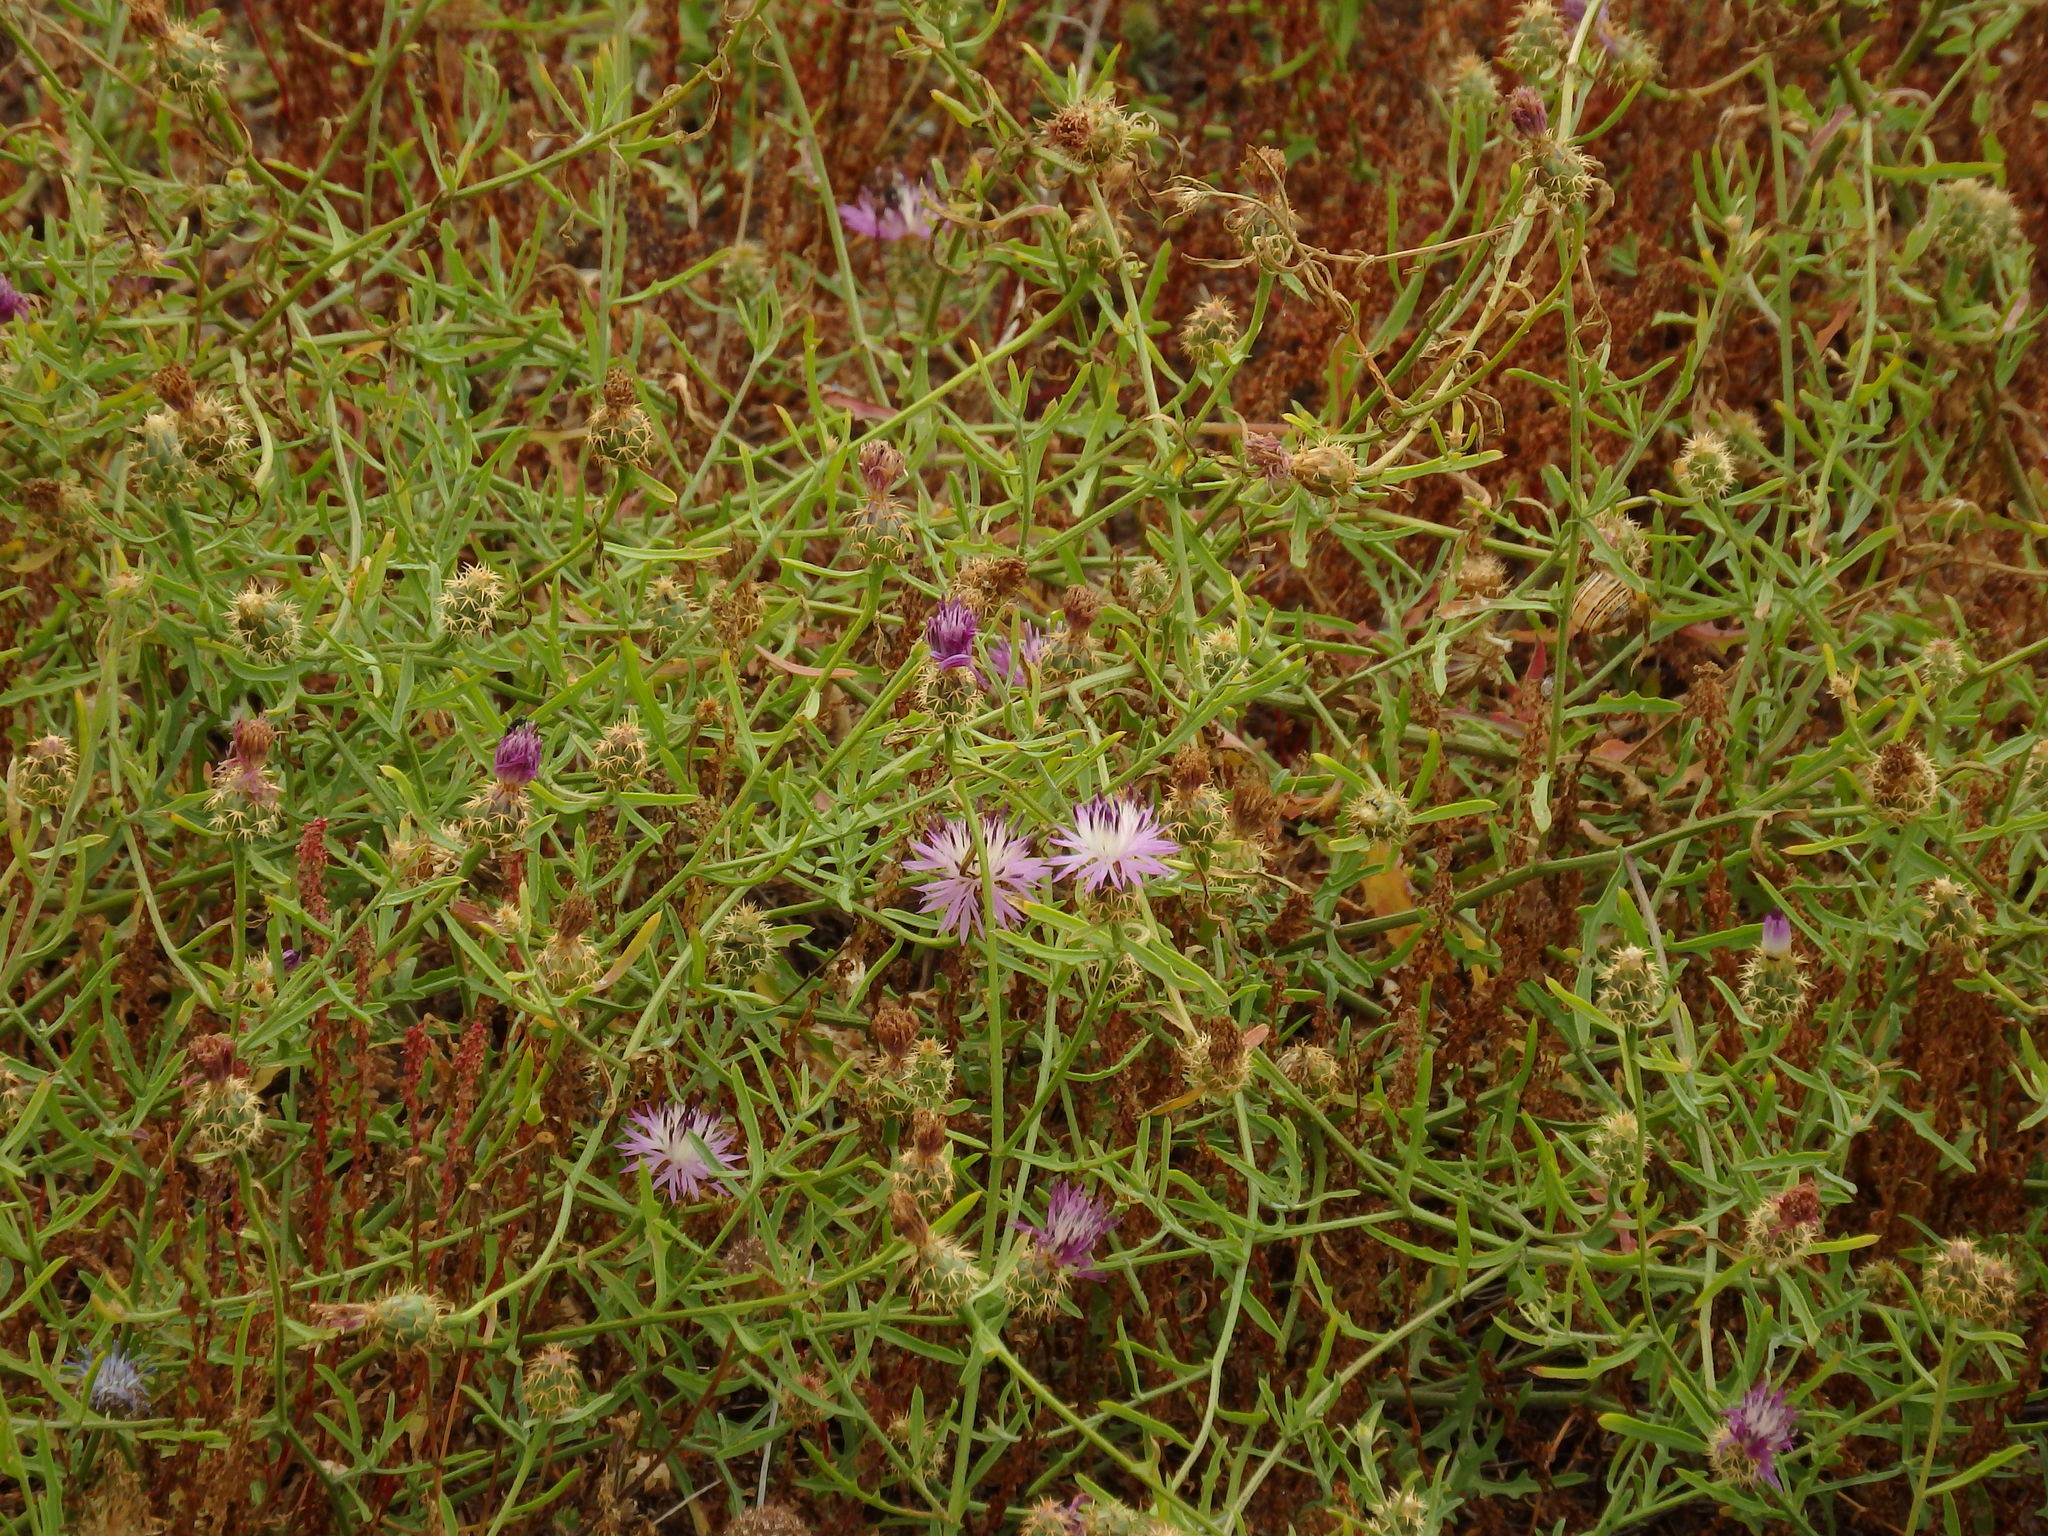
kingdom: Plantae
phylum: Tracheophyta
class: Magnoliopsida
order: Asterales
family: Asteraceae
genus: Centaurea
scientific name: Centaurea aspera
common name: Rough star-thistle
